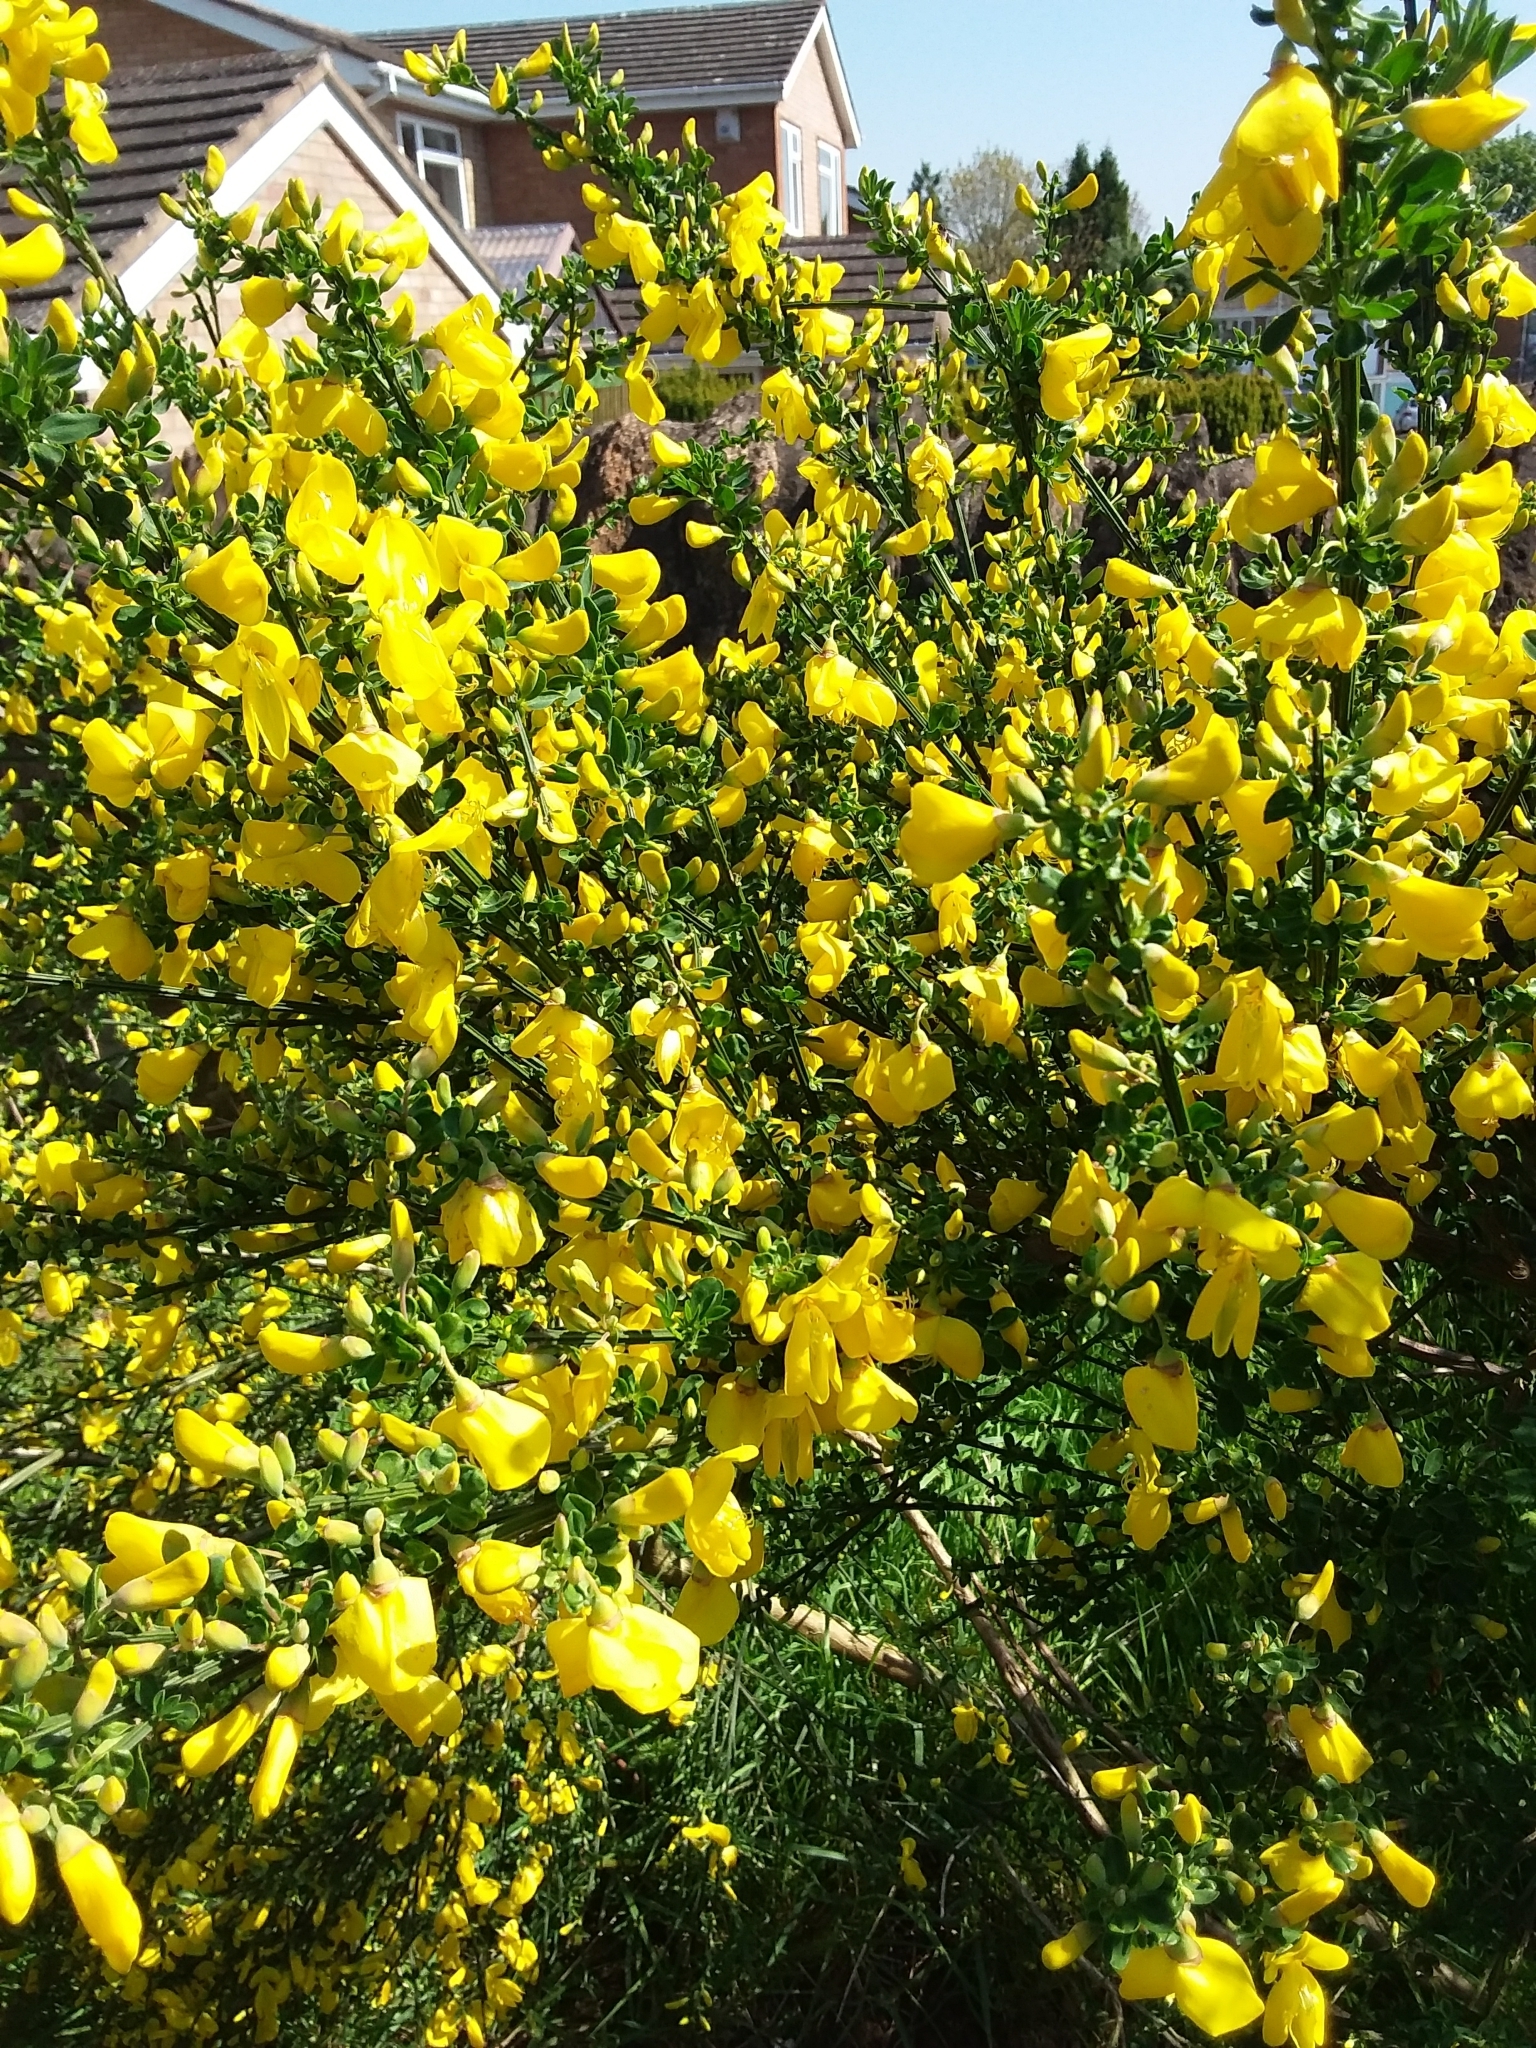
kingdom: Plantae
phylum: Tracheophyta
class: Magnoliopsida
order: Fabales
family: Fabaceae
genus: Cytisus
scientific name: Cytisus scoparius
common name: Scotch broom
